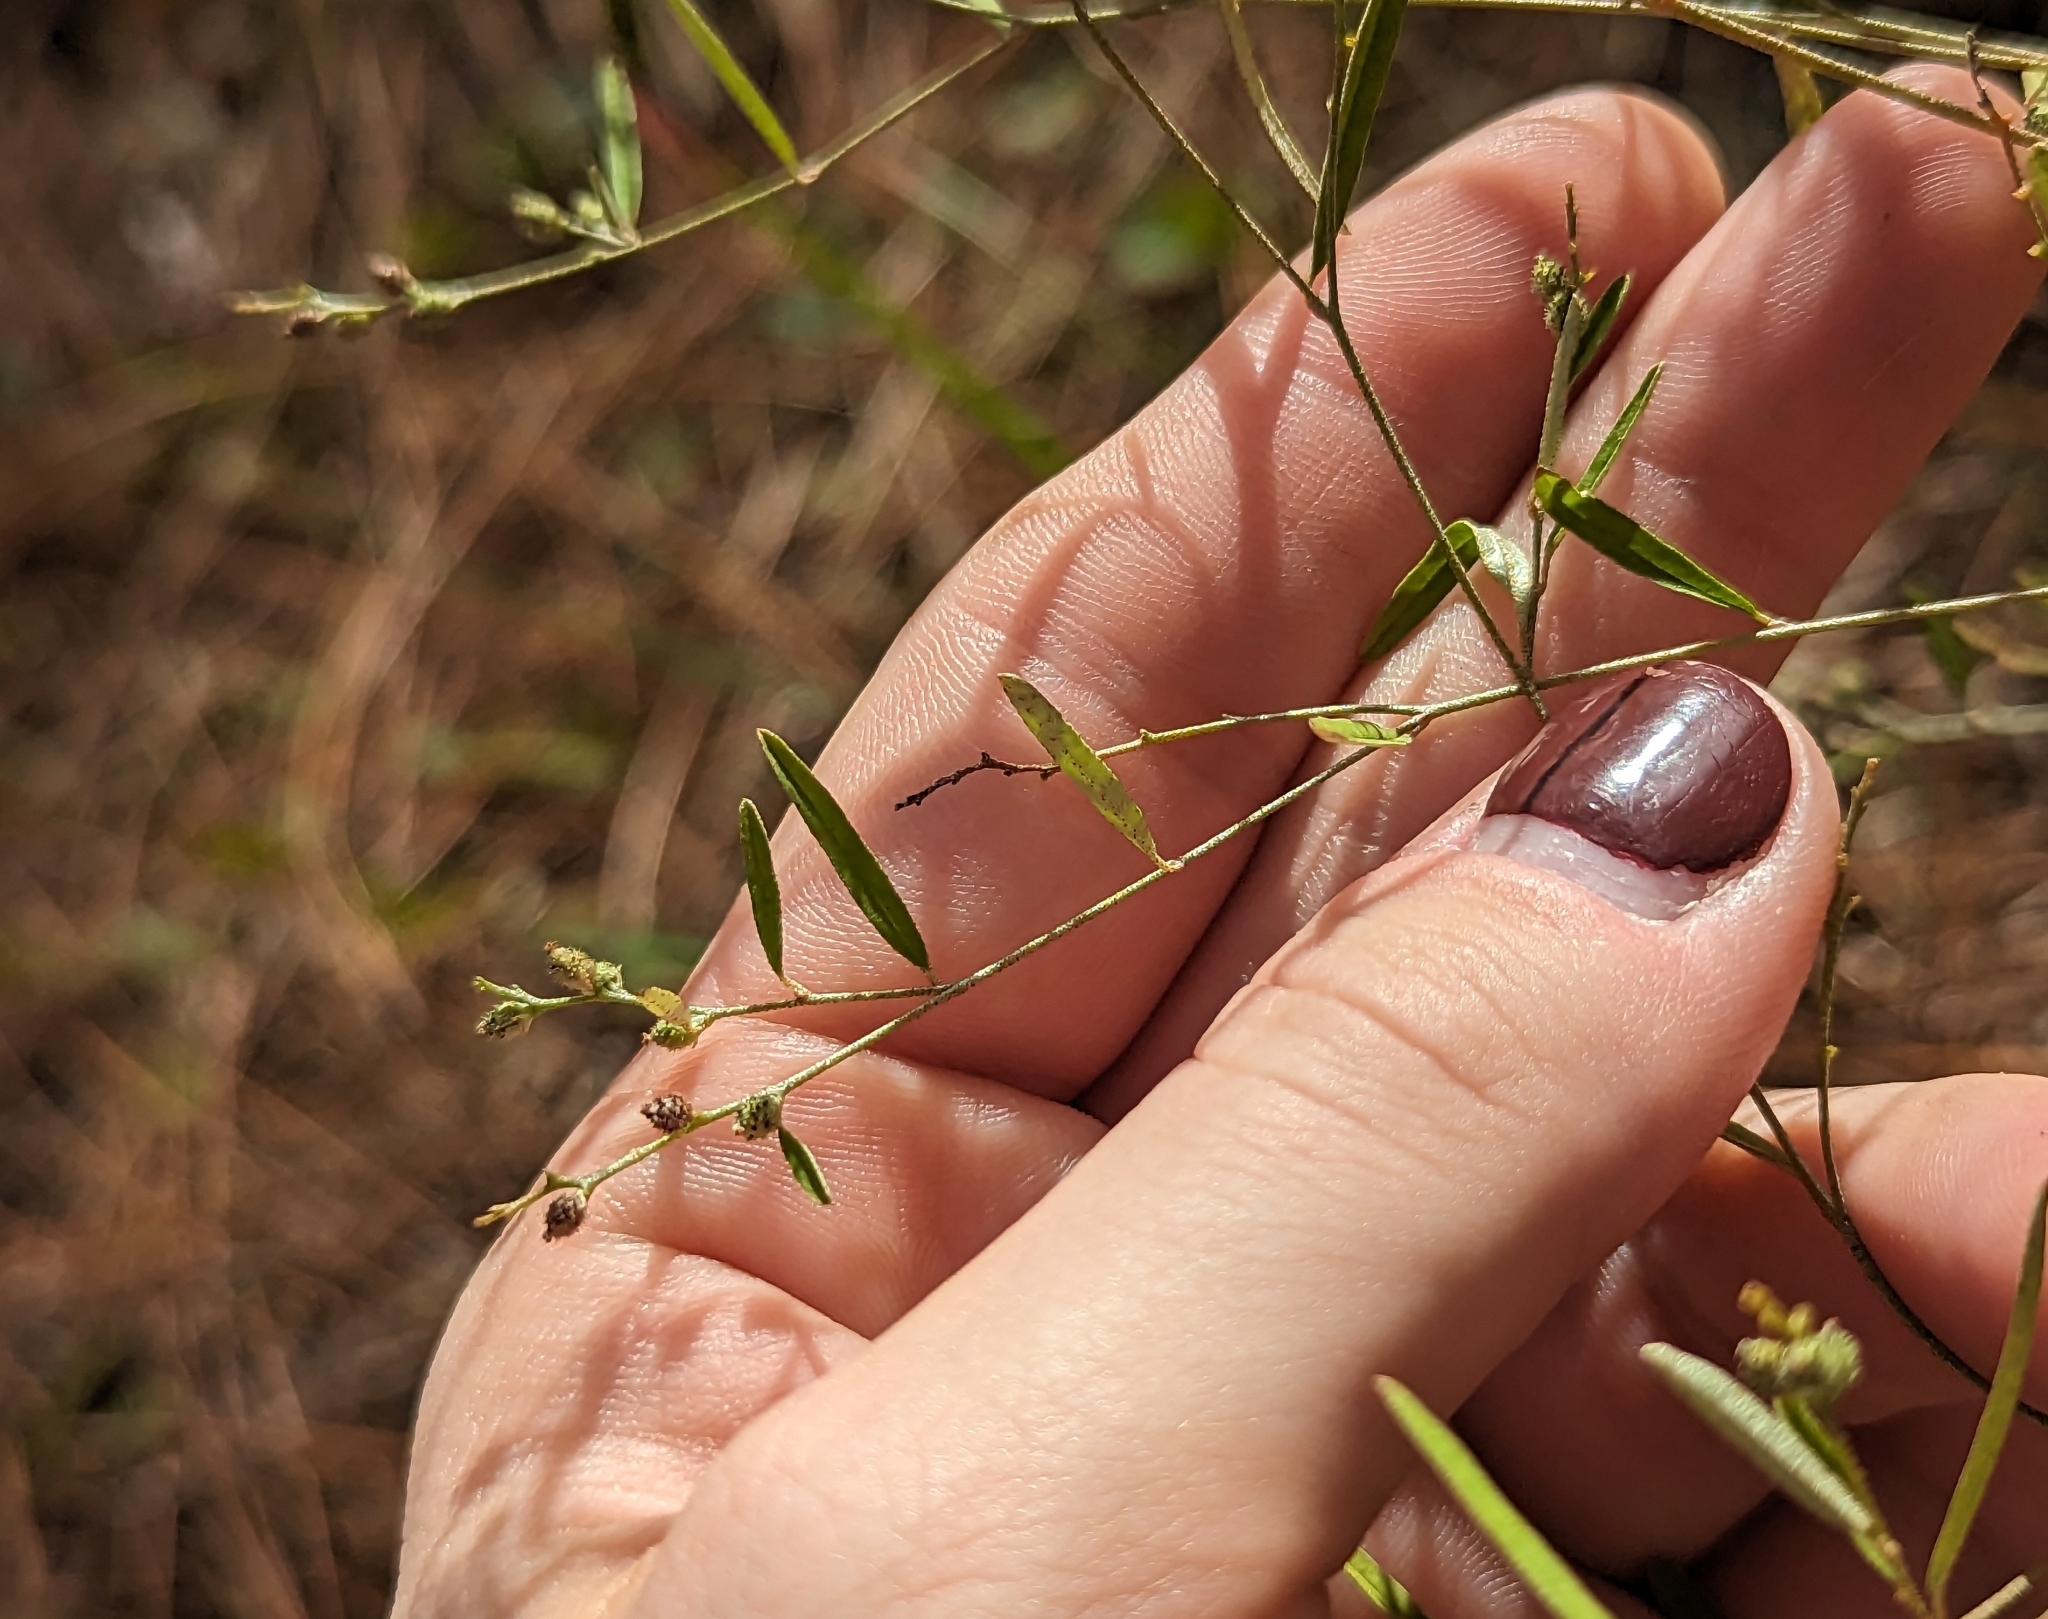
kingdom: Plantae
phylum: Tracheophyta
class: Magnoliopsida
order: Malpighiales
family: Euphorbiaceae
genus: Croton
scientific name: Croton michauxii
